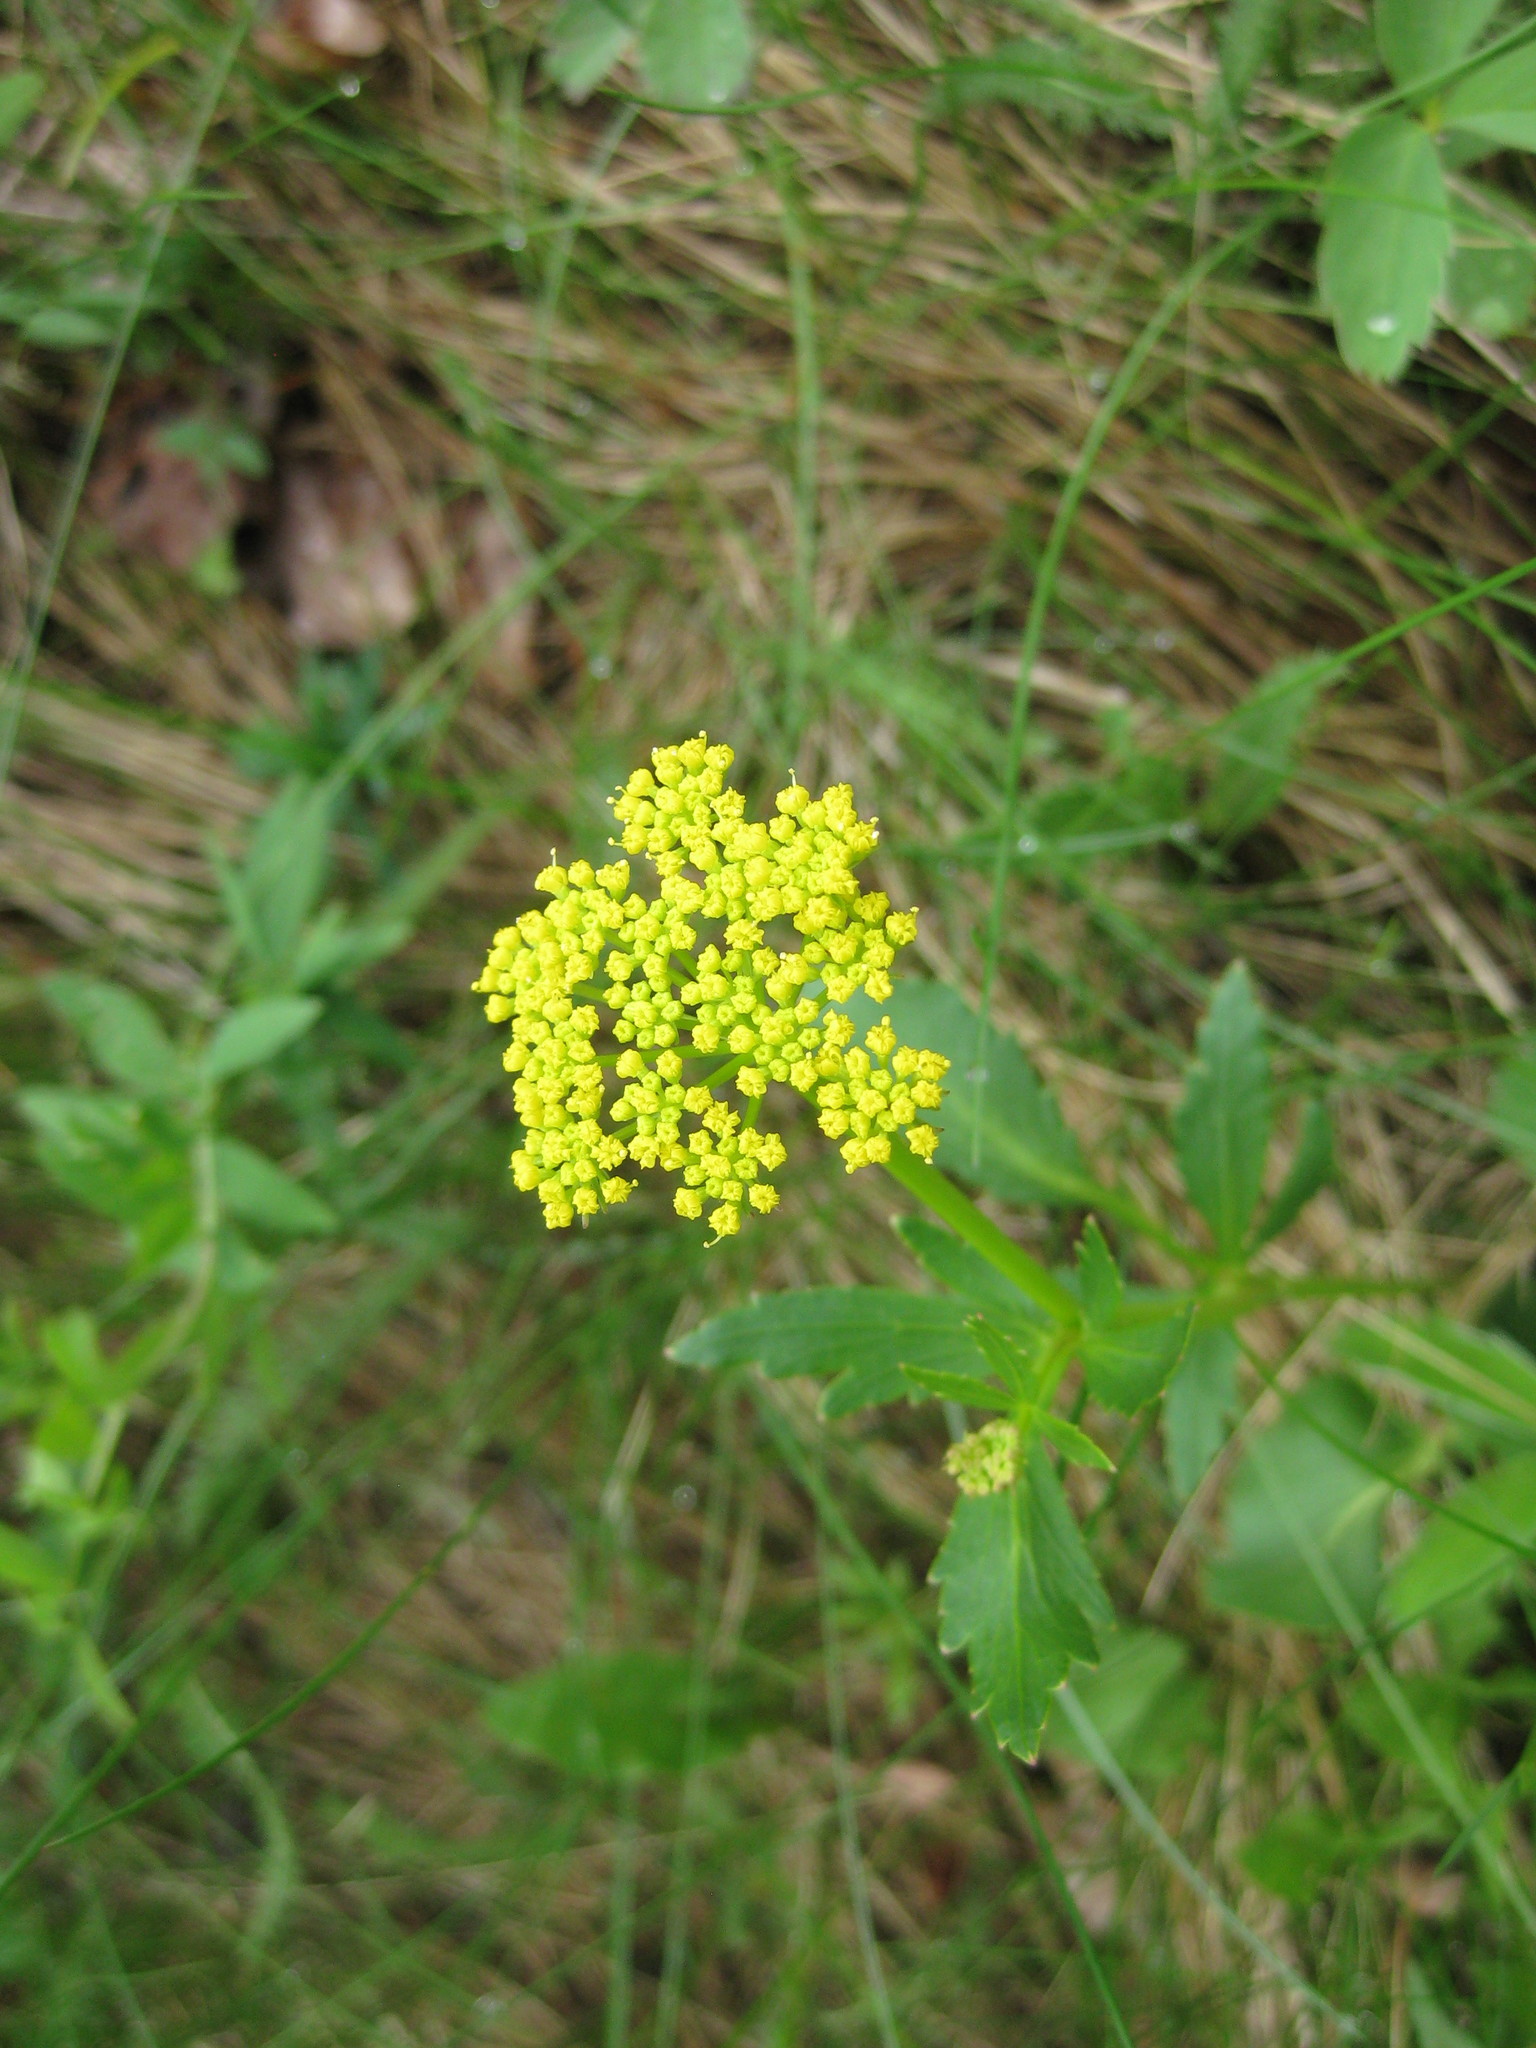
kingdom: Plantae
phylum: Tracheophyta
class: Magnoliopsida
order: Apiales
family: Apiaceae
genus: Zizia
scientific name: Zizia aptera
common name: Heart-leaved alexanders
